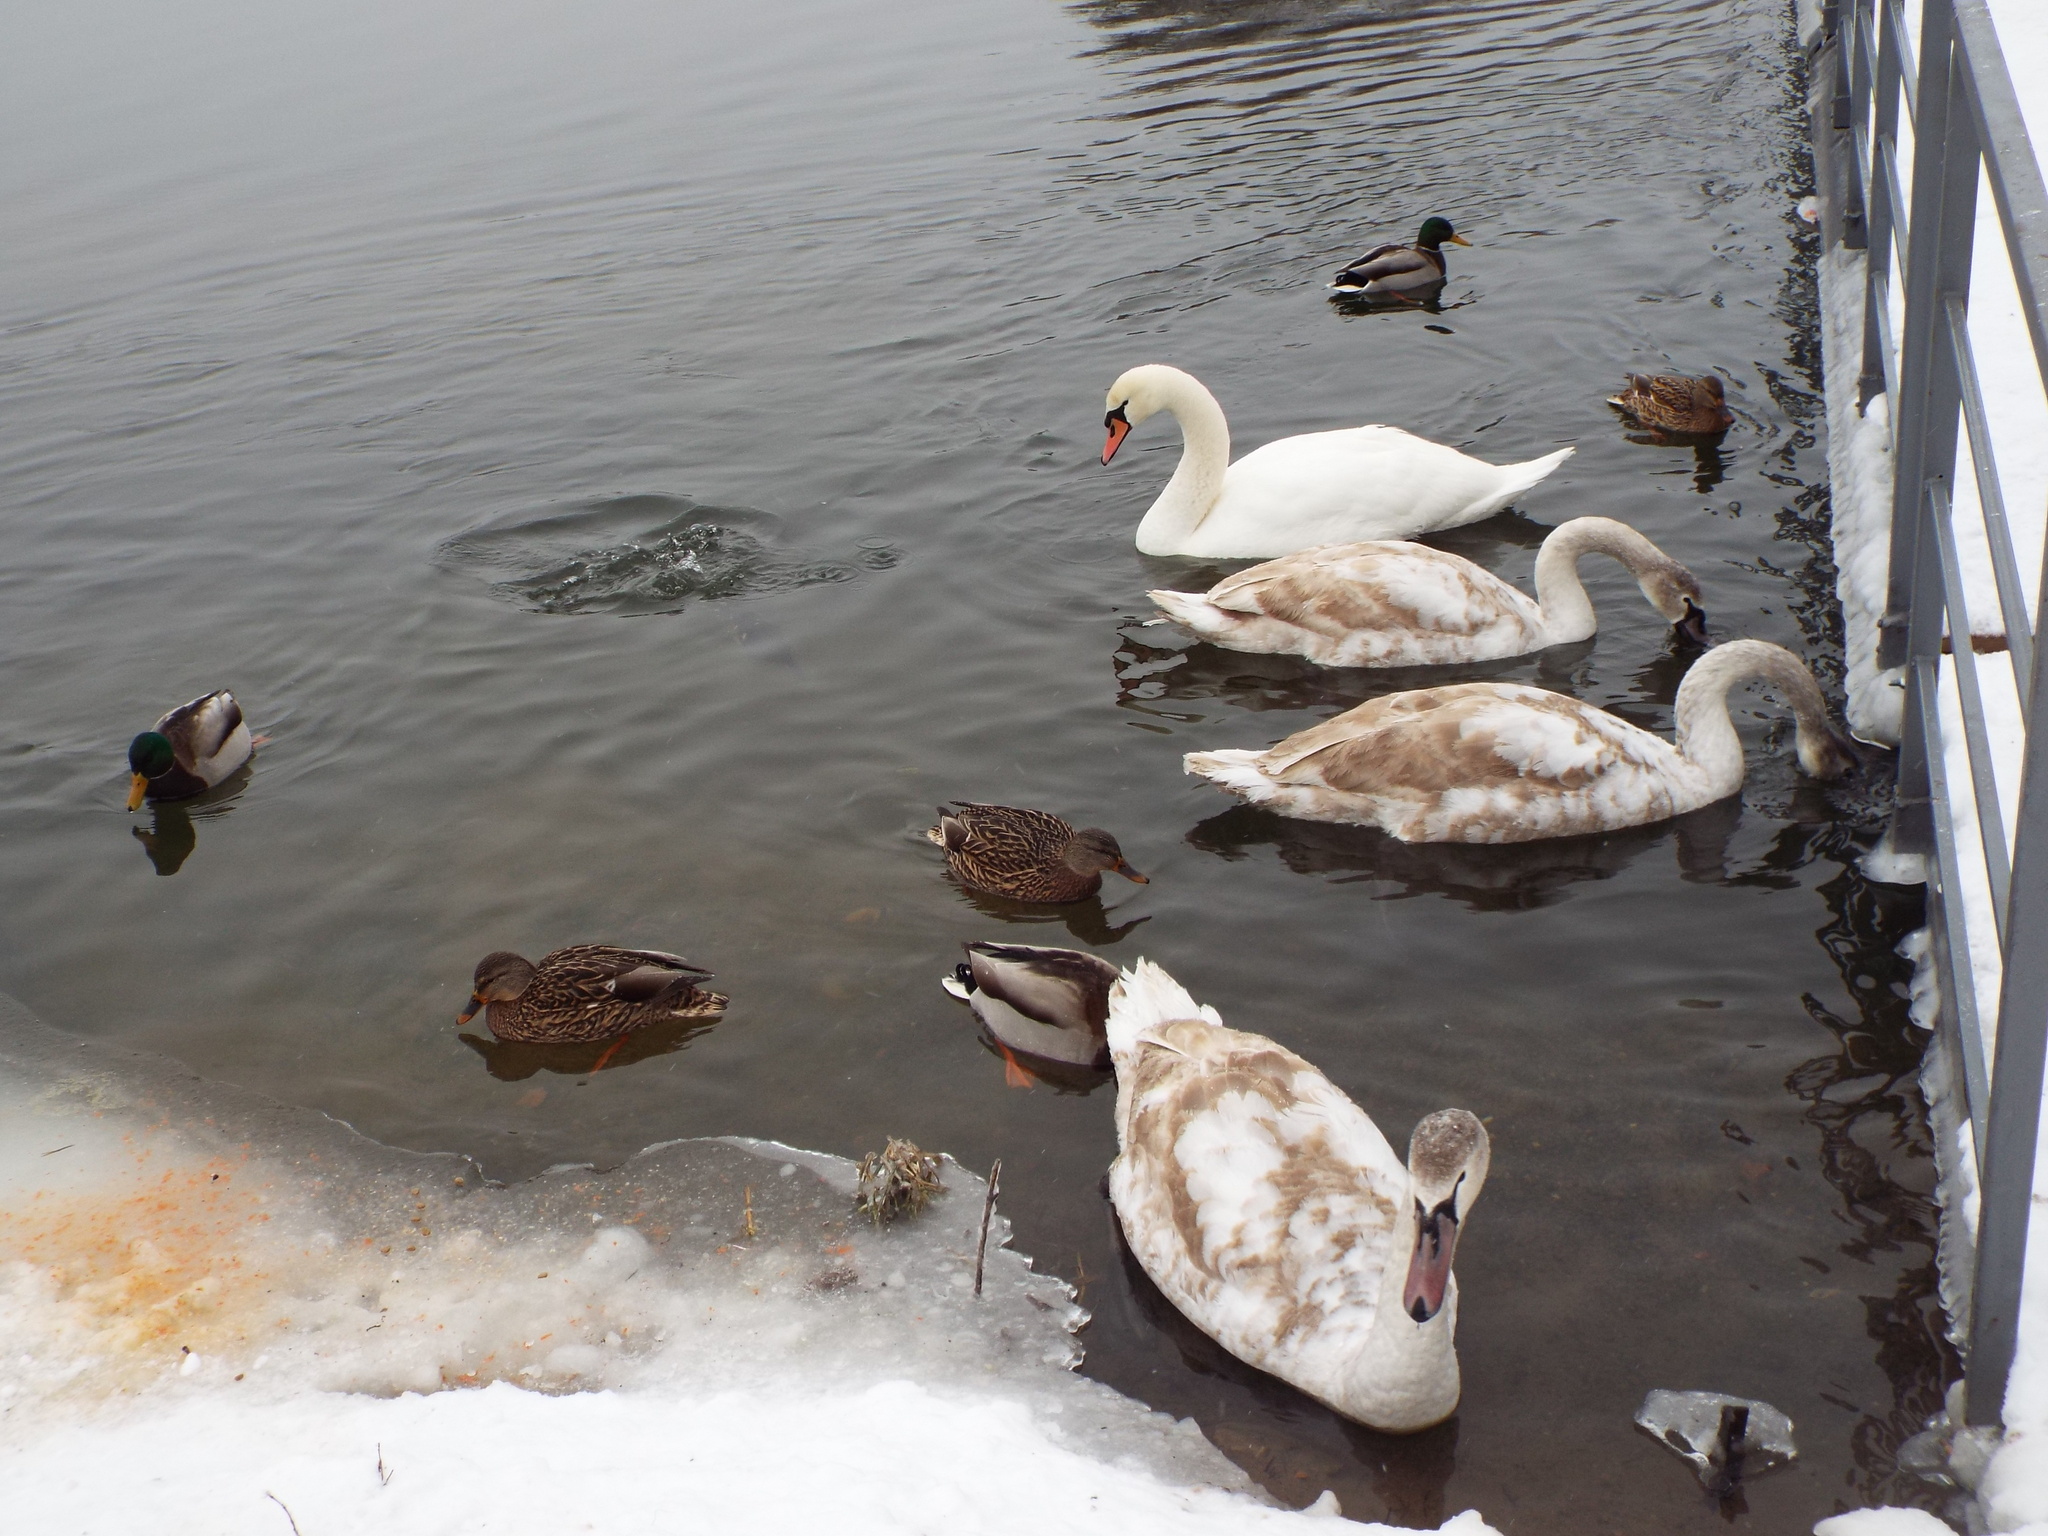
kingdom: Animalia
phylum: Chordata
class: Aves
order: Anseriformes
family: Anatidae
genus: Cygnus
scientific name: Cygnus olor
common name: Mute swan
